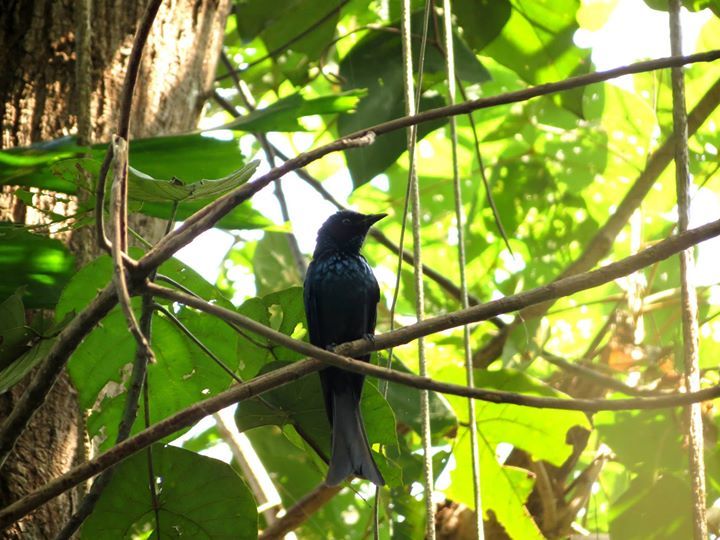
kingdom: Animalia
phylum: Chordata
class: Aves
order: Passeriformes
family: Dicruridae
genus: Dicrurus
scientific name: Dicrurus aeneus
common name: Bronzed drongo
